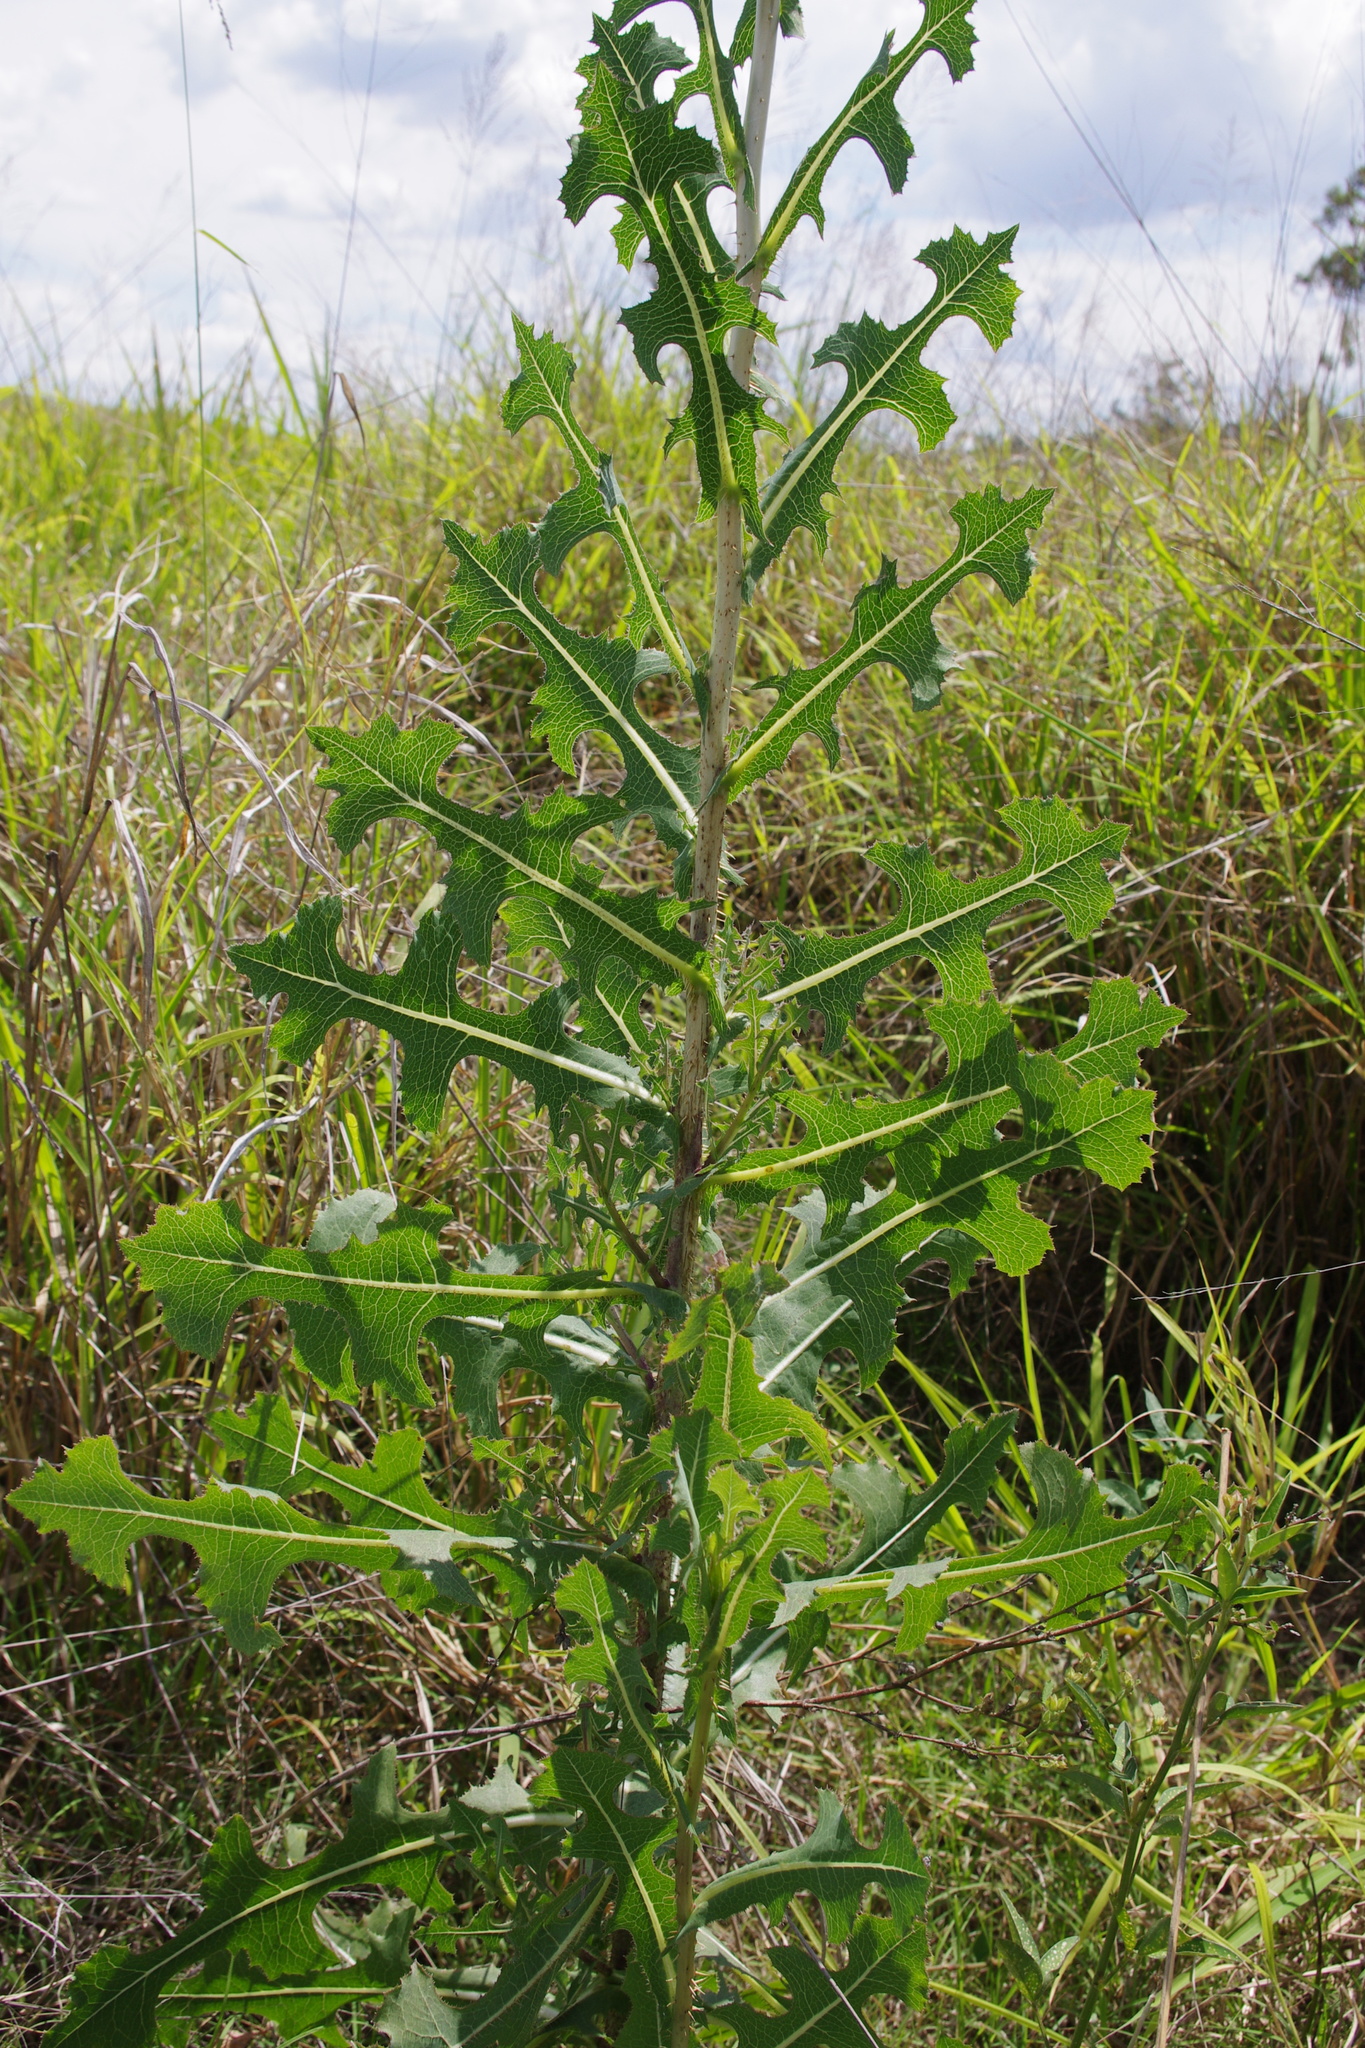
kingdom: Plantae
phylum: Tracheophyta
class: Magnoliopsida
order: Asterales
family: Asteraceae
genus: Lactuca
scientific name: Lactuca serriola
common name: Prickly lettuce
